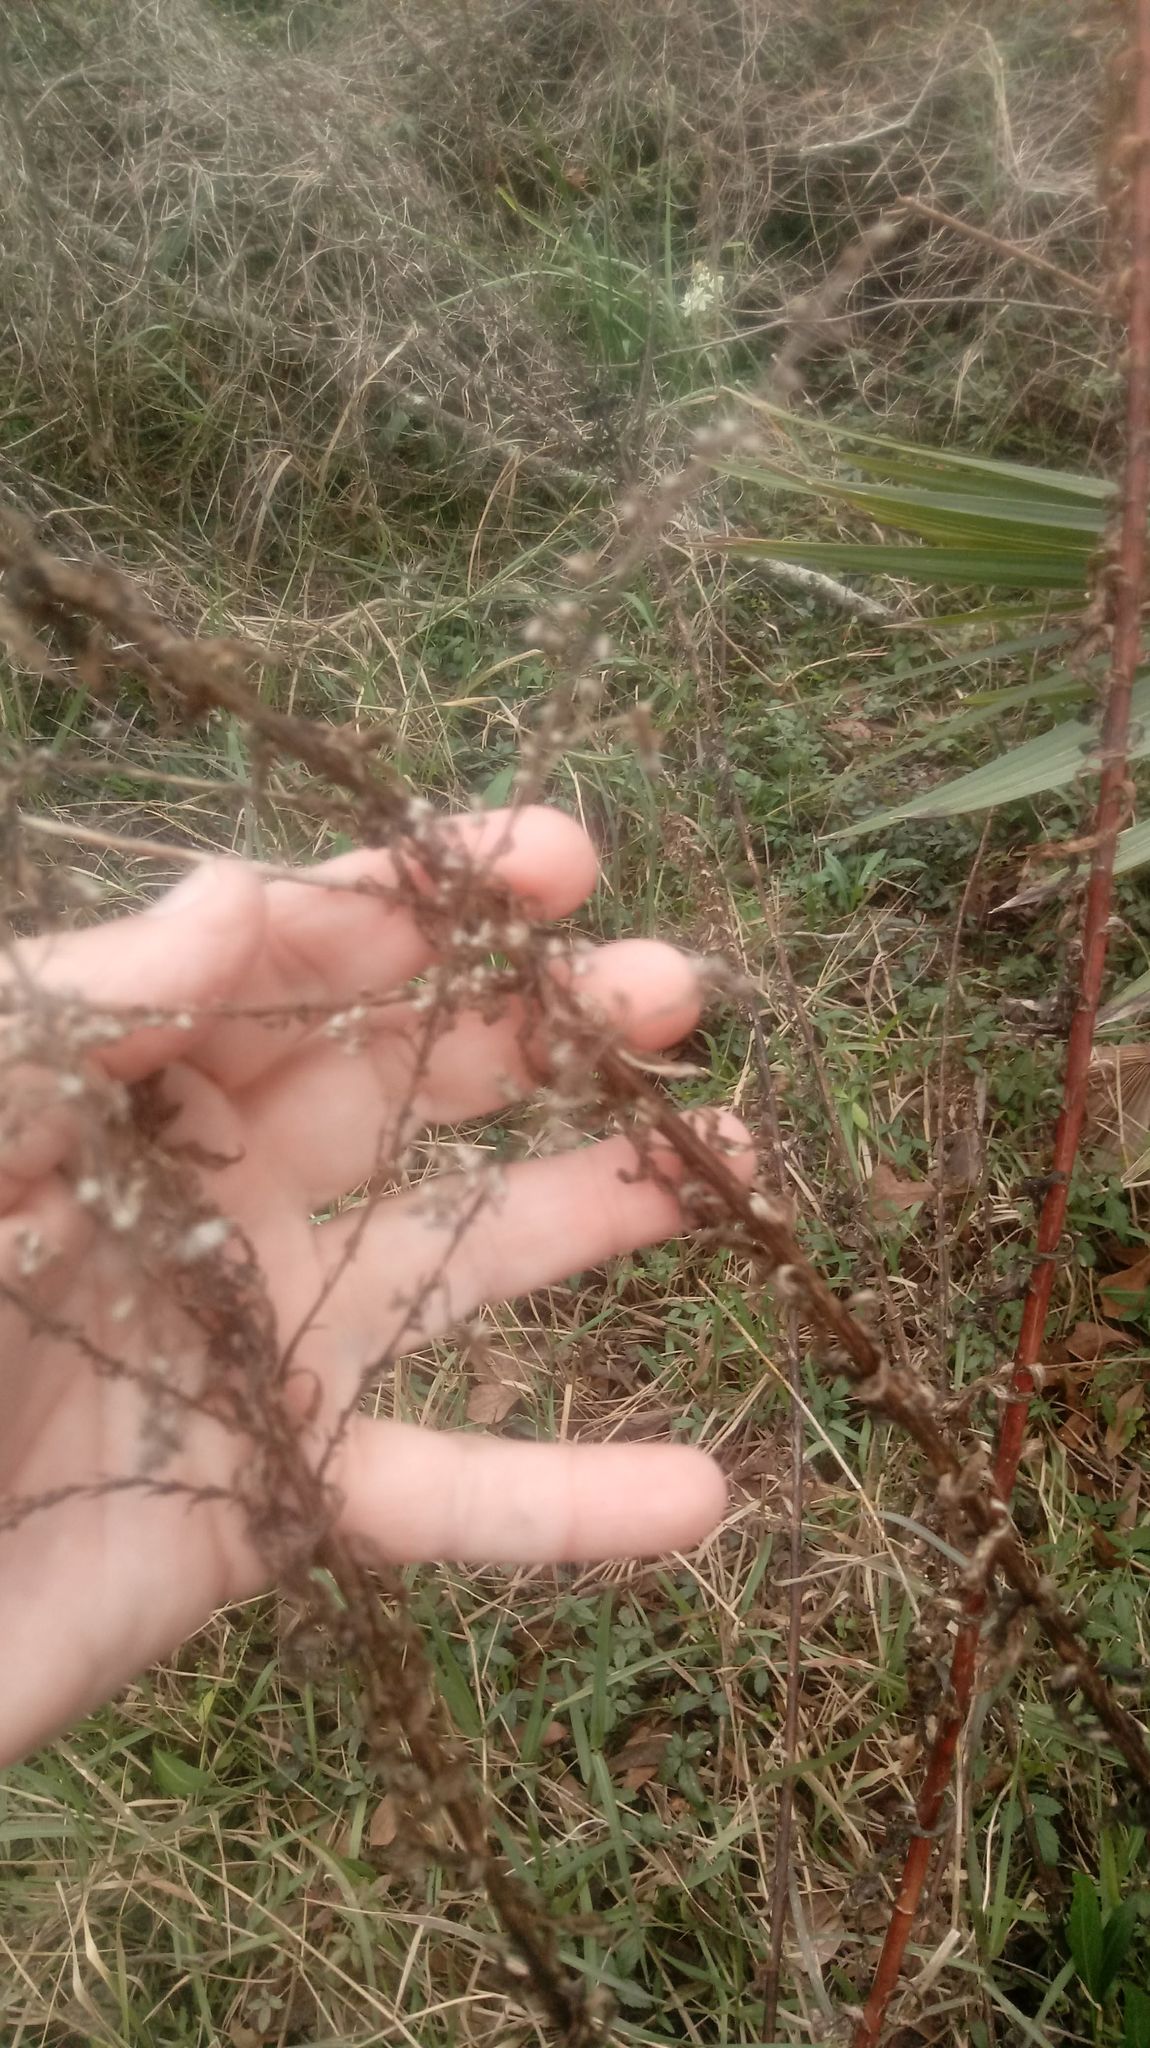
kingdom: Plantae
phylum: Tracheophyta
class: Magnoliopsida
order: Asterales
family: Asteraceae
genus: Solidago
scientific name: Solidago mexicana
